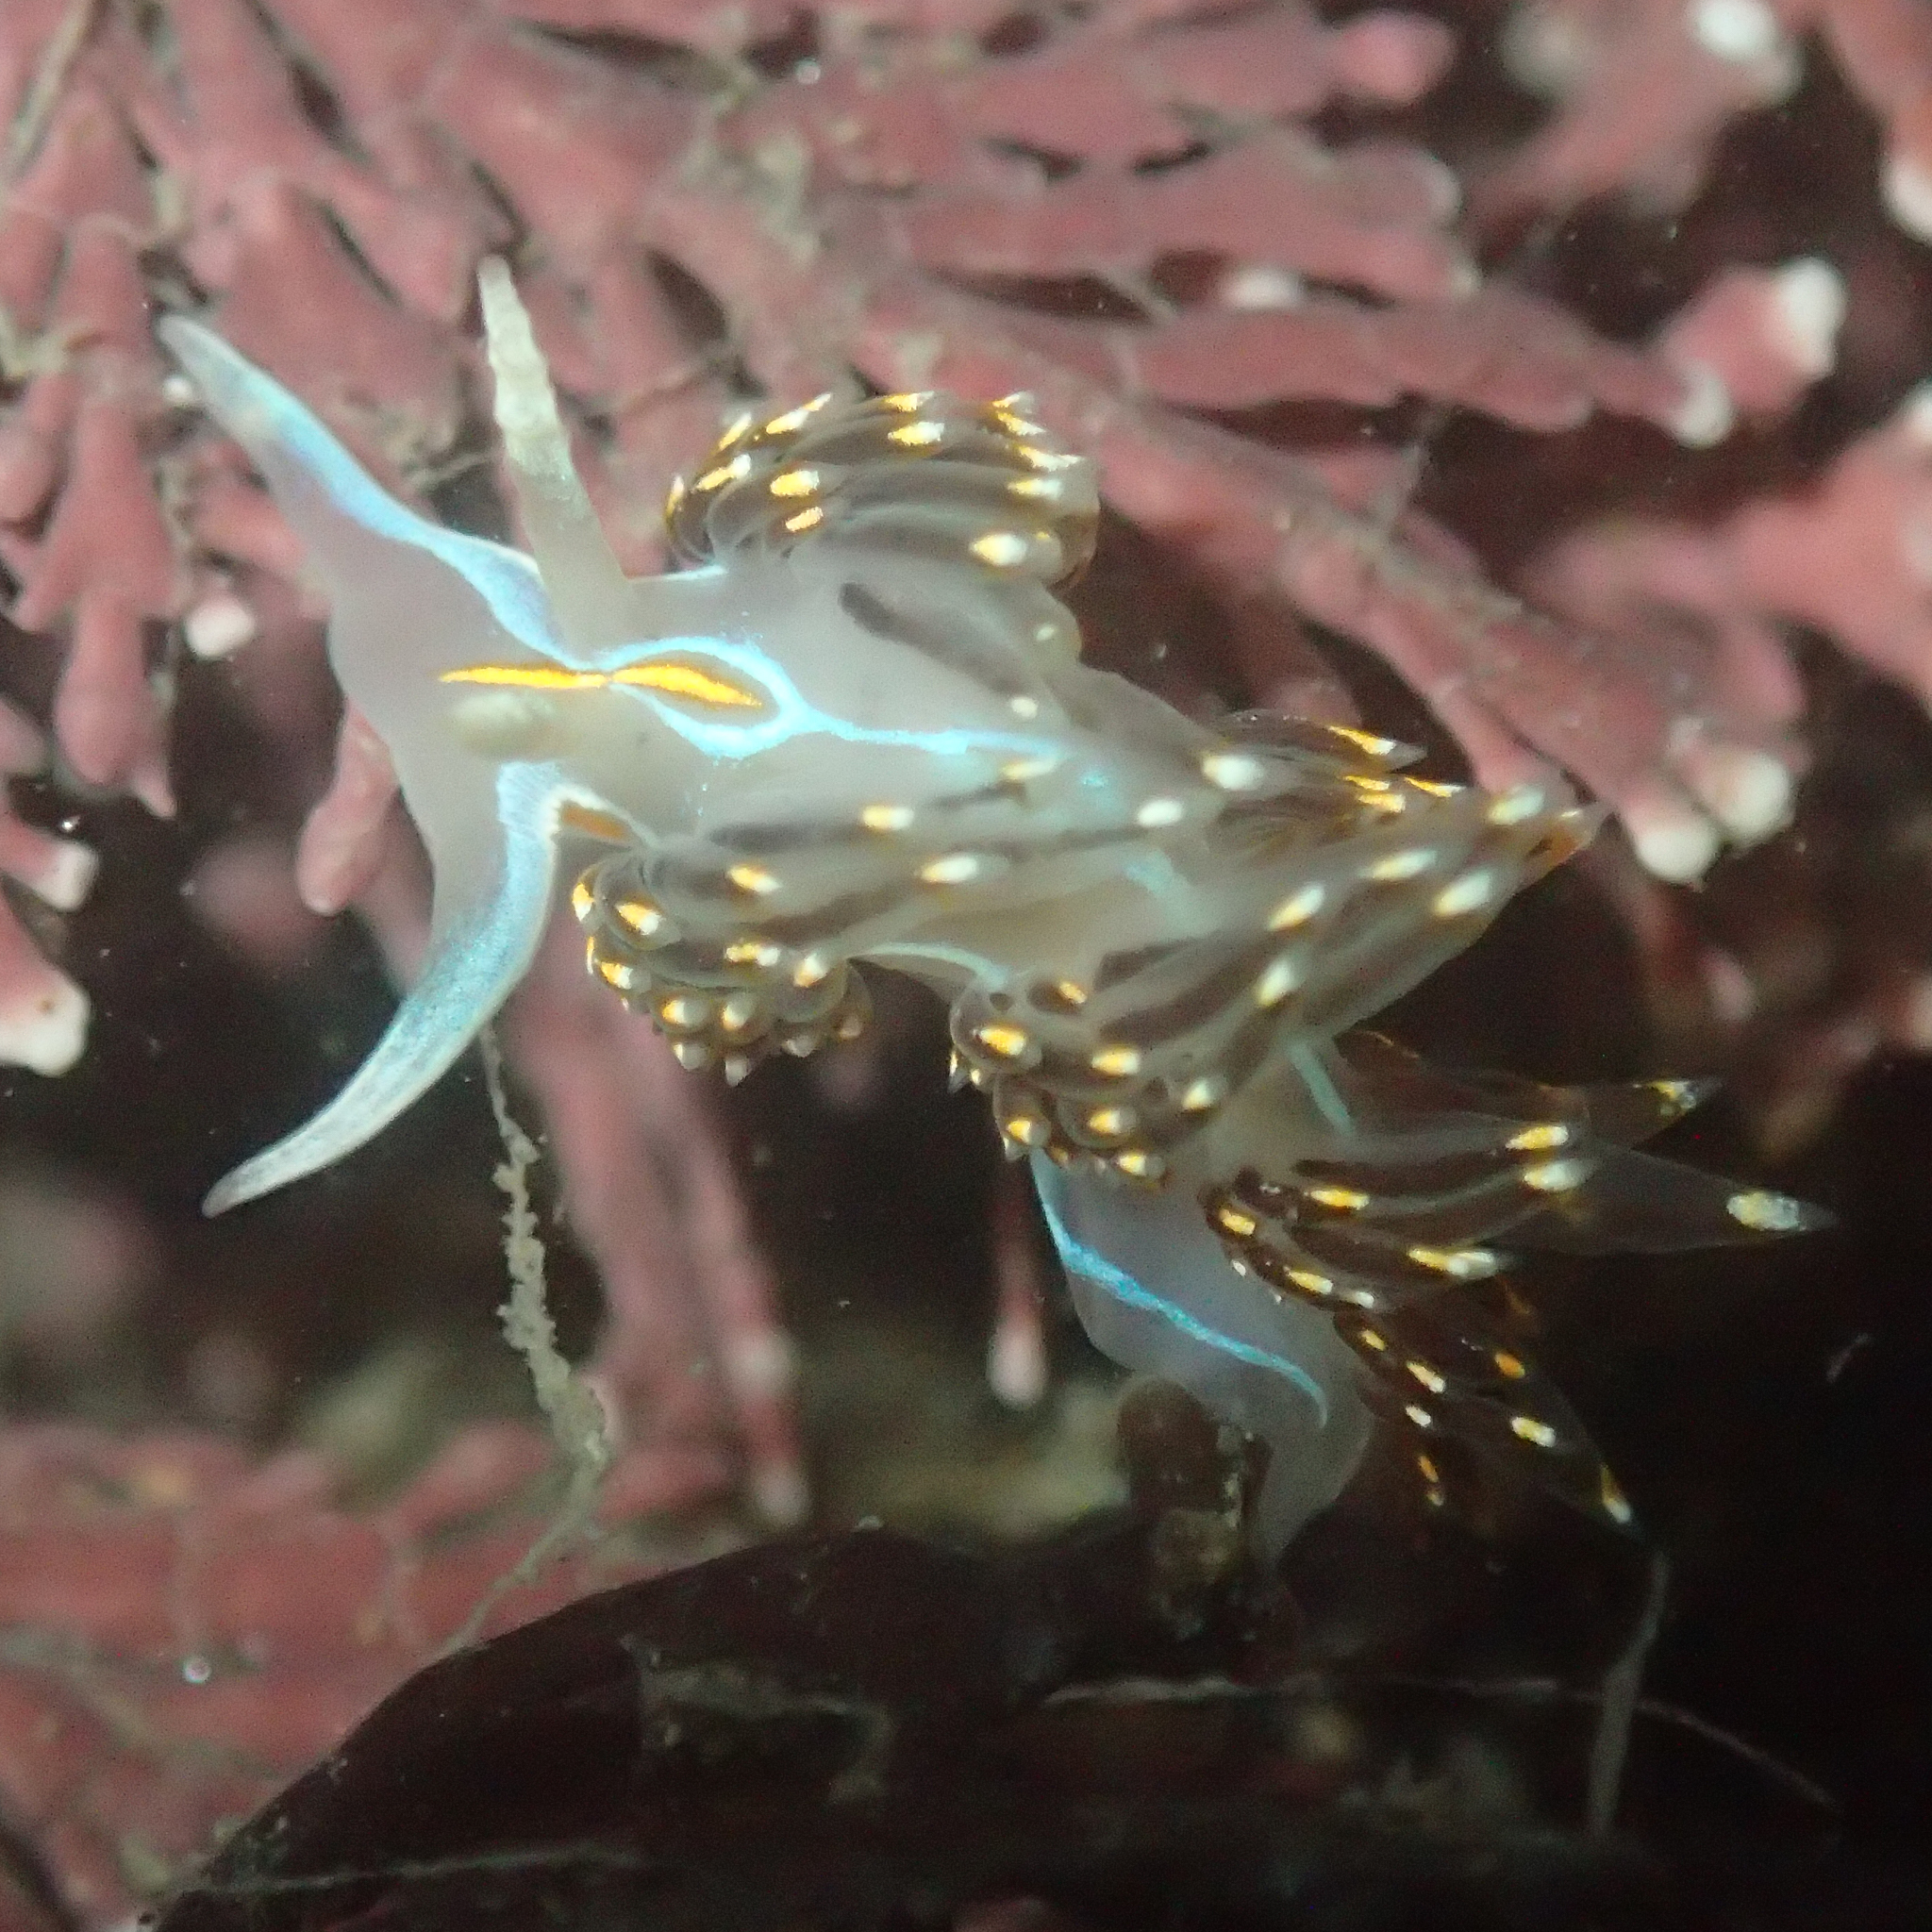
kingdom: Animalia
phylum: Mollusca
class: Gastropoda
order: Nudibranchia
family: Myrrhinidae
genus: Hermissenda
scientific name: Hermissenda opalescens
